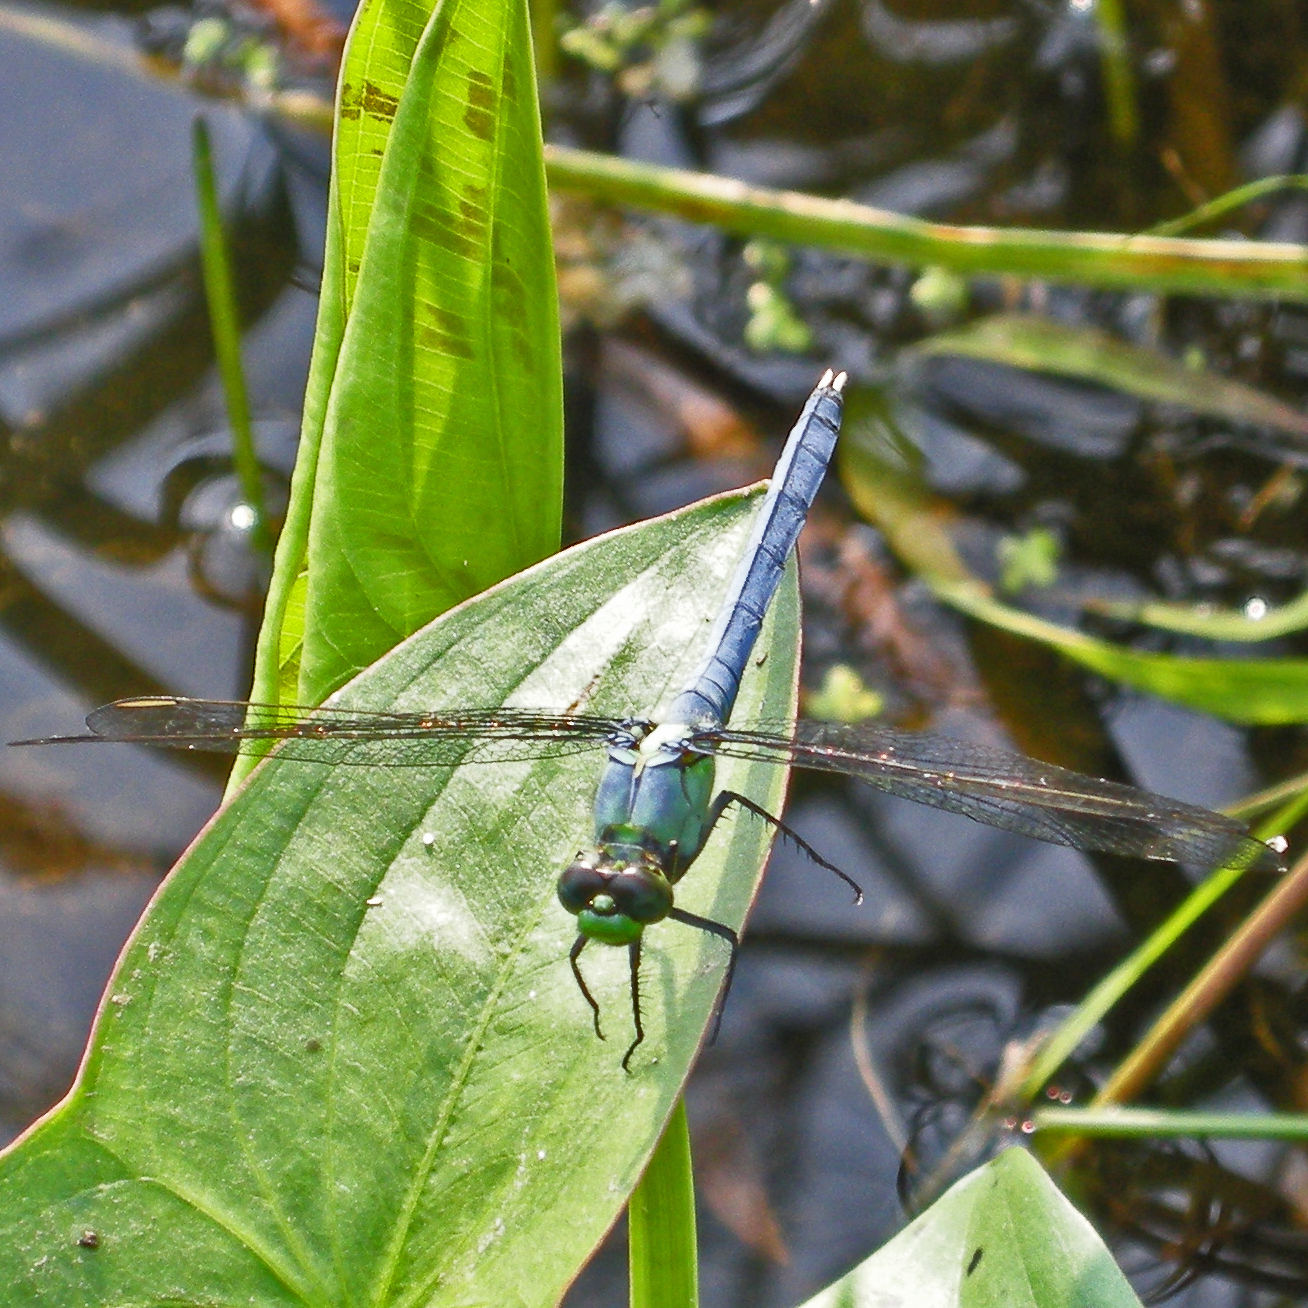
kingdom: Animalia
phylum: Arthropoda
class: Insecta
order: Odonata
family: Libellulidae
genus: Erythemis
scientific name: Erythemis simplicicollis
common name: Eastern pondhawk
